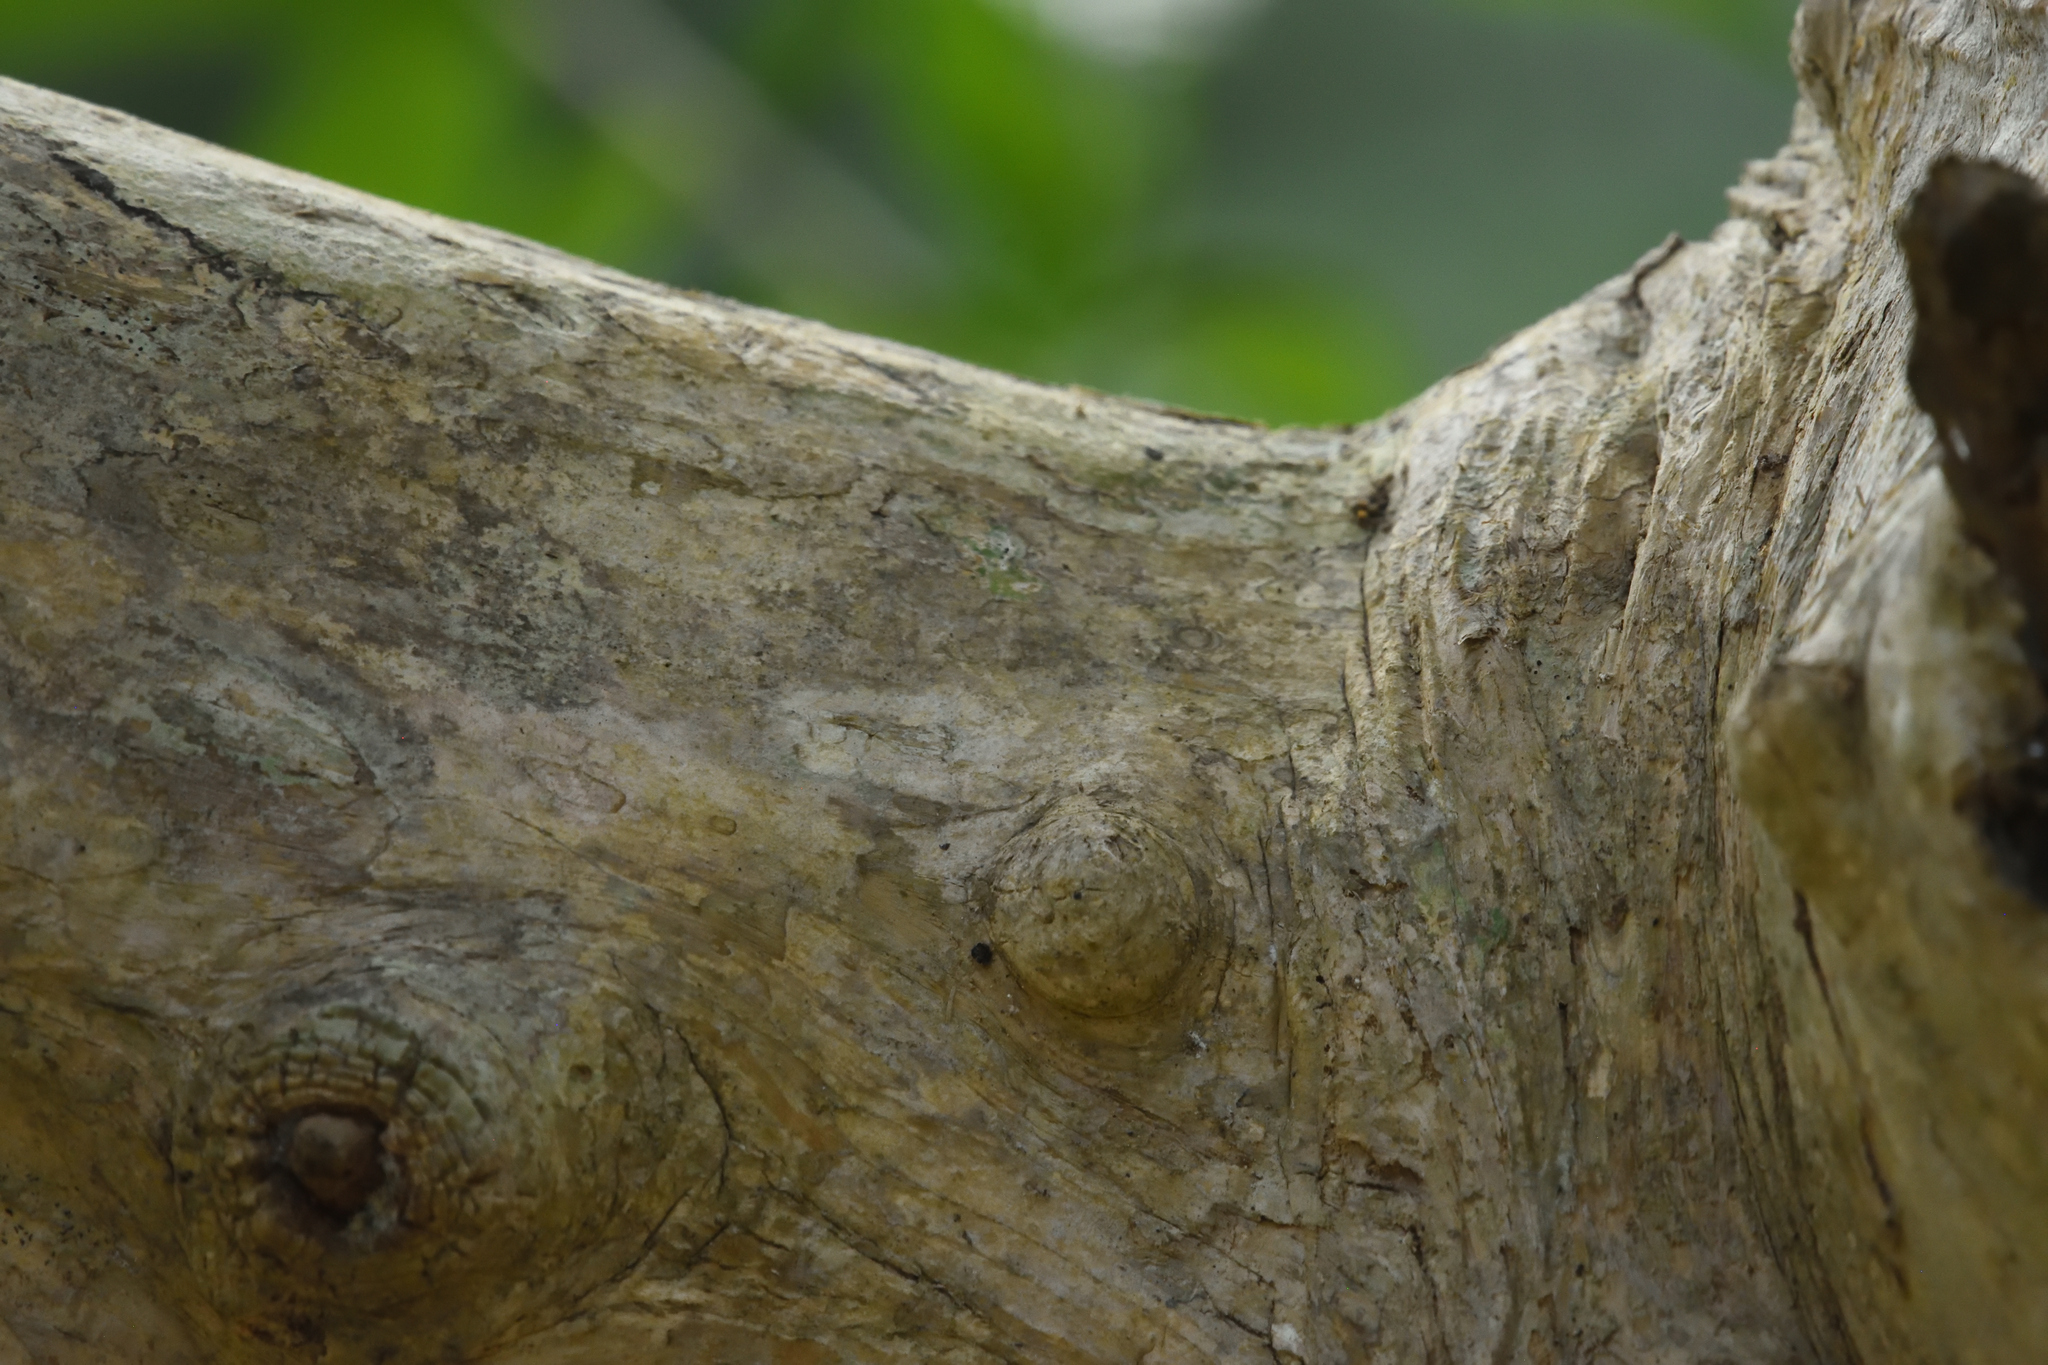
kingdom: Plantae
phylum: Tracheophyta
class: Magnoliopsida
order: Lamiales
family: Bignoniaceae
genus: Crescentia
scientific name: Crescentia cujete
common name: Calabash
